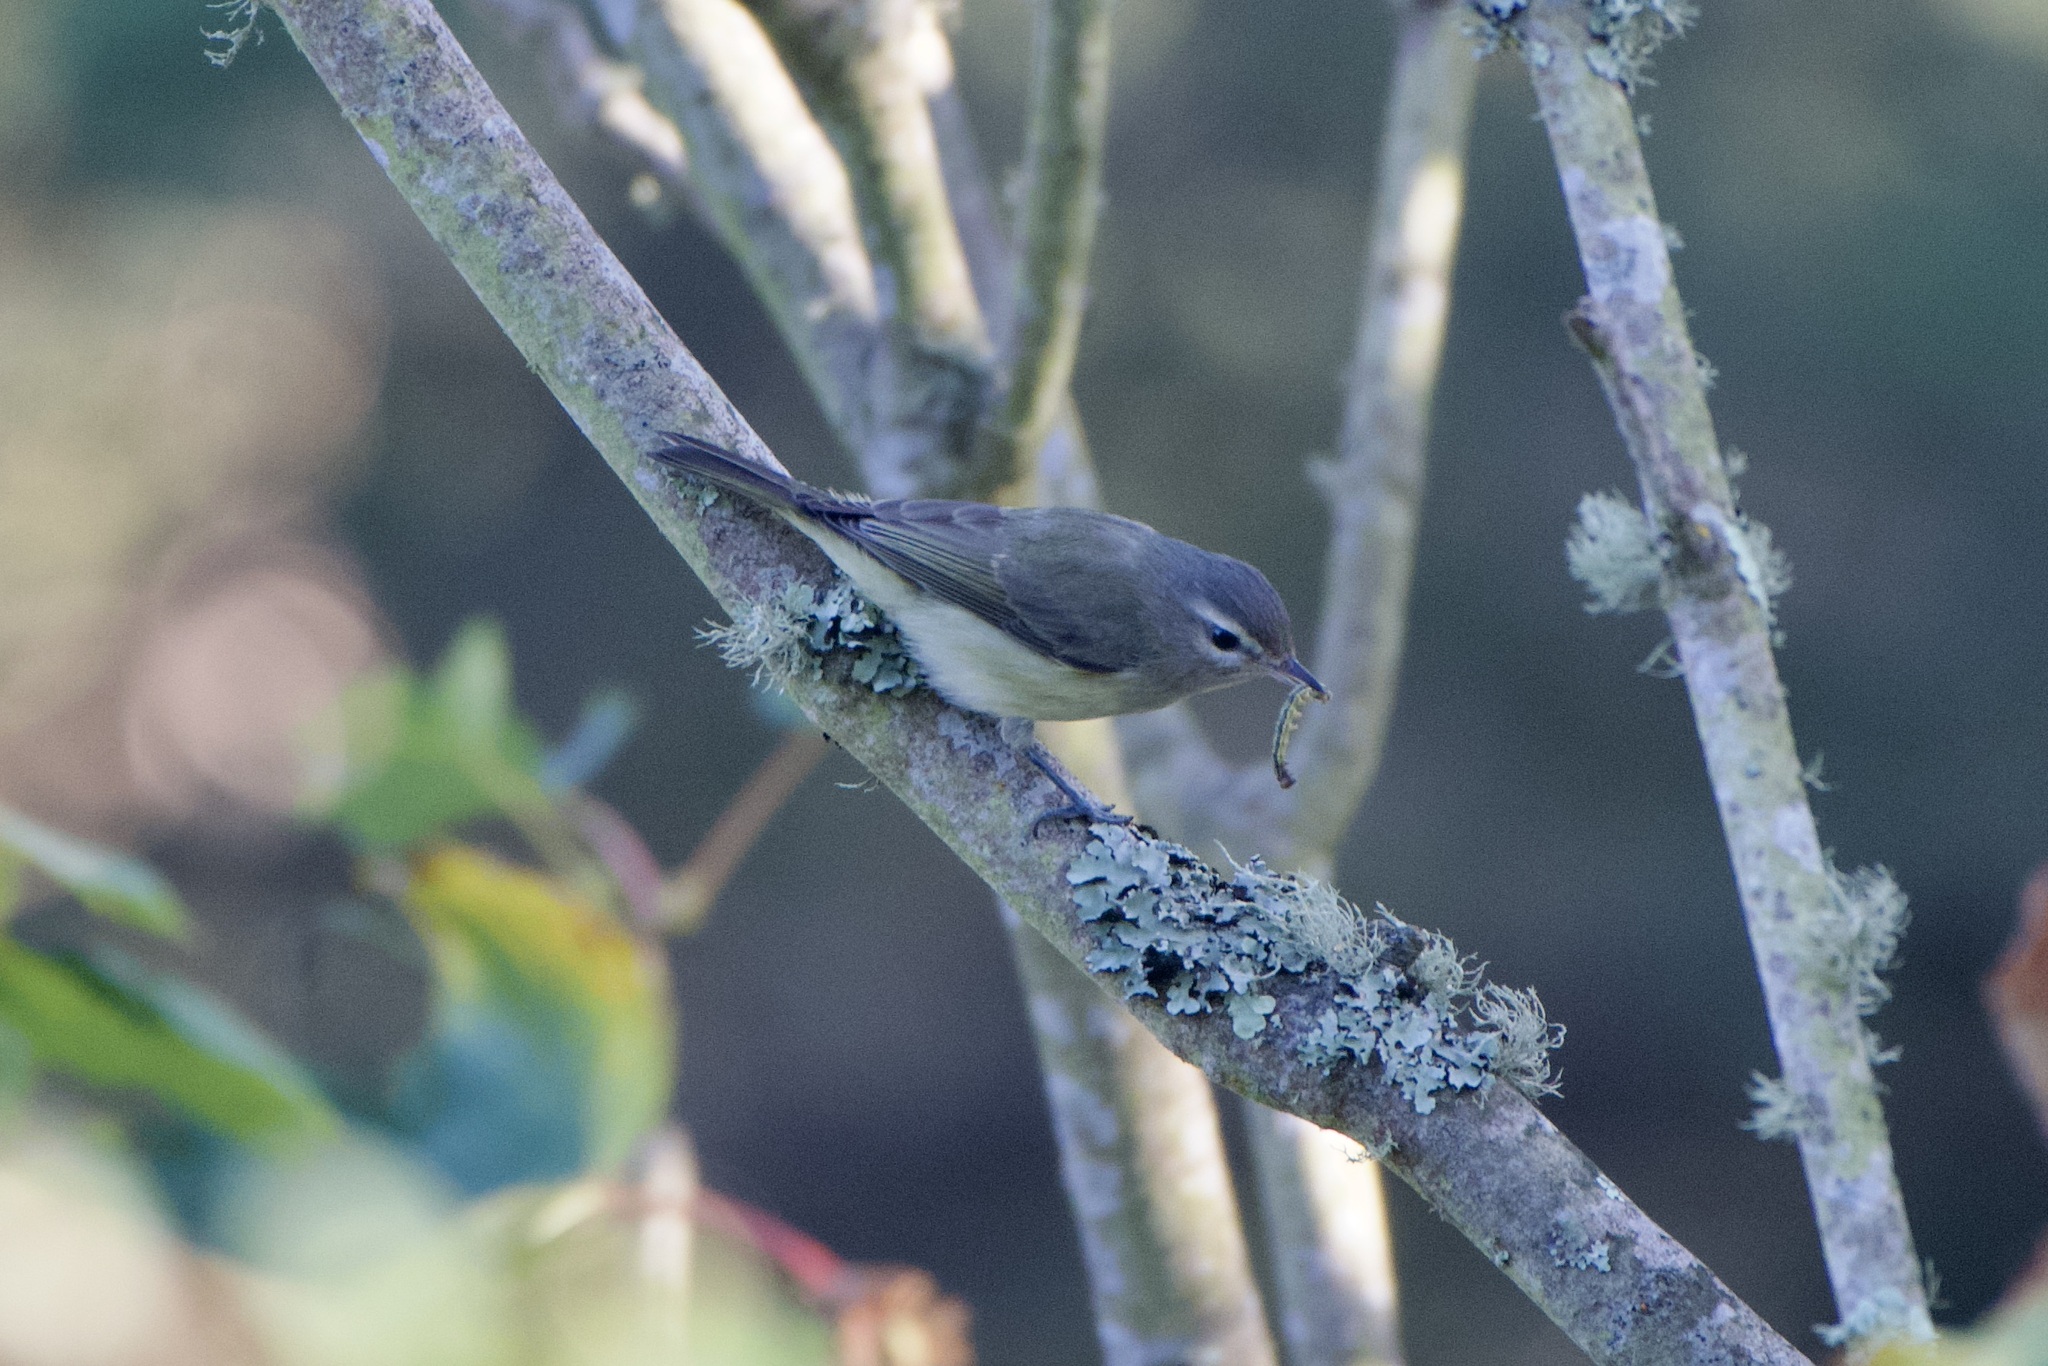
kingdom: Animalia
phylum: Chordata
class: Aves
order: Passeriformes
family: Vireonidae
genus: Vireo
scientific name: Vireo gilvus
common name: Warbling vireo
